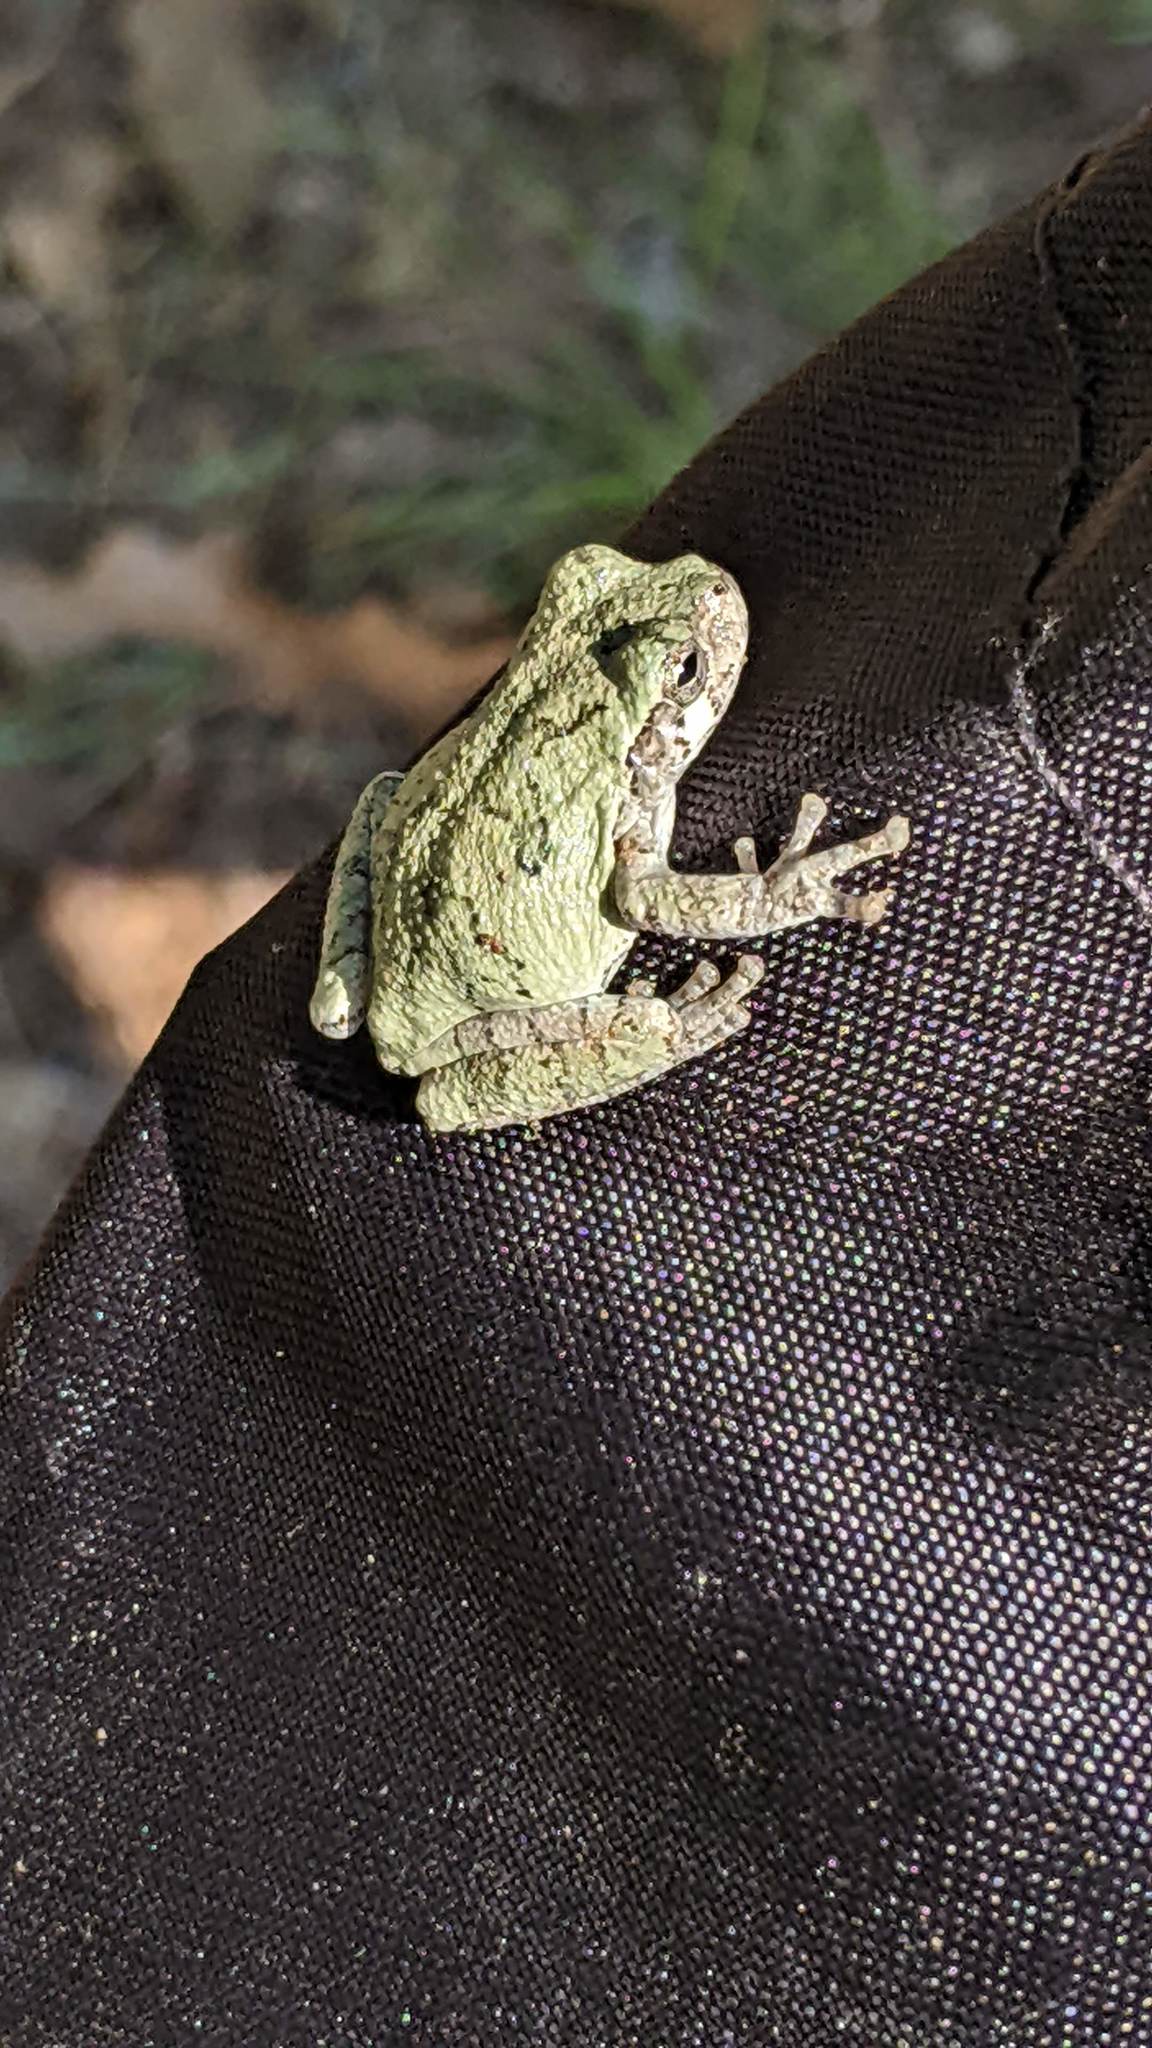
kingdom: Animalia
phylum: Chordata
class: Amphibia
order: Anura
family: Hylidae
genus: Hyla
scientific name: Hyla
